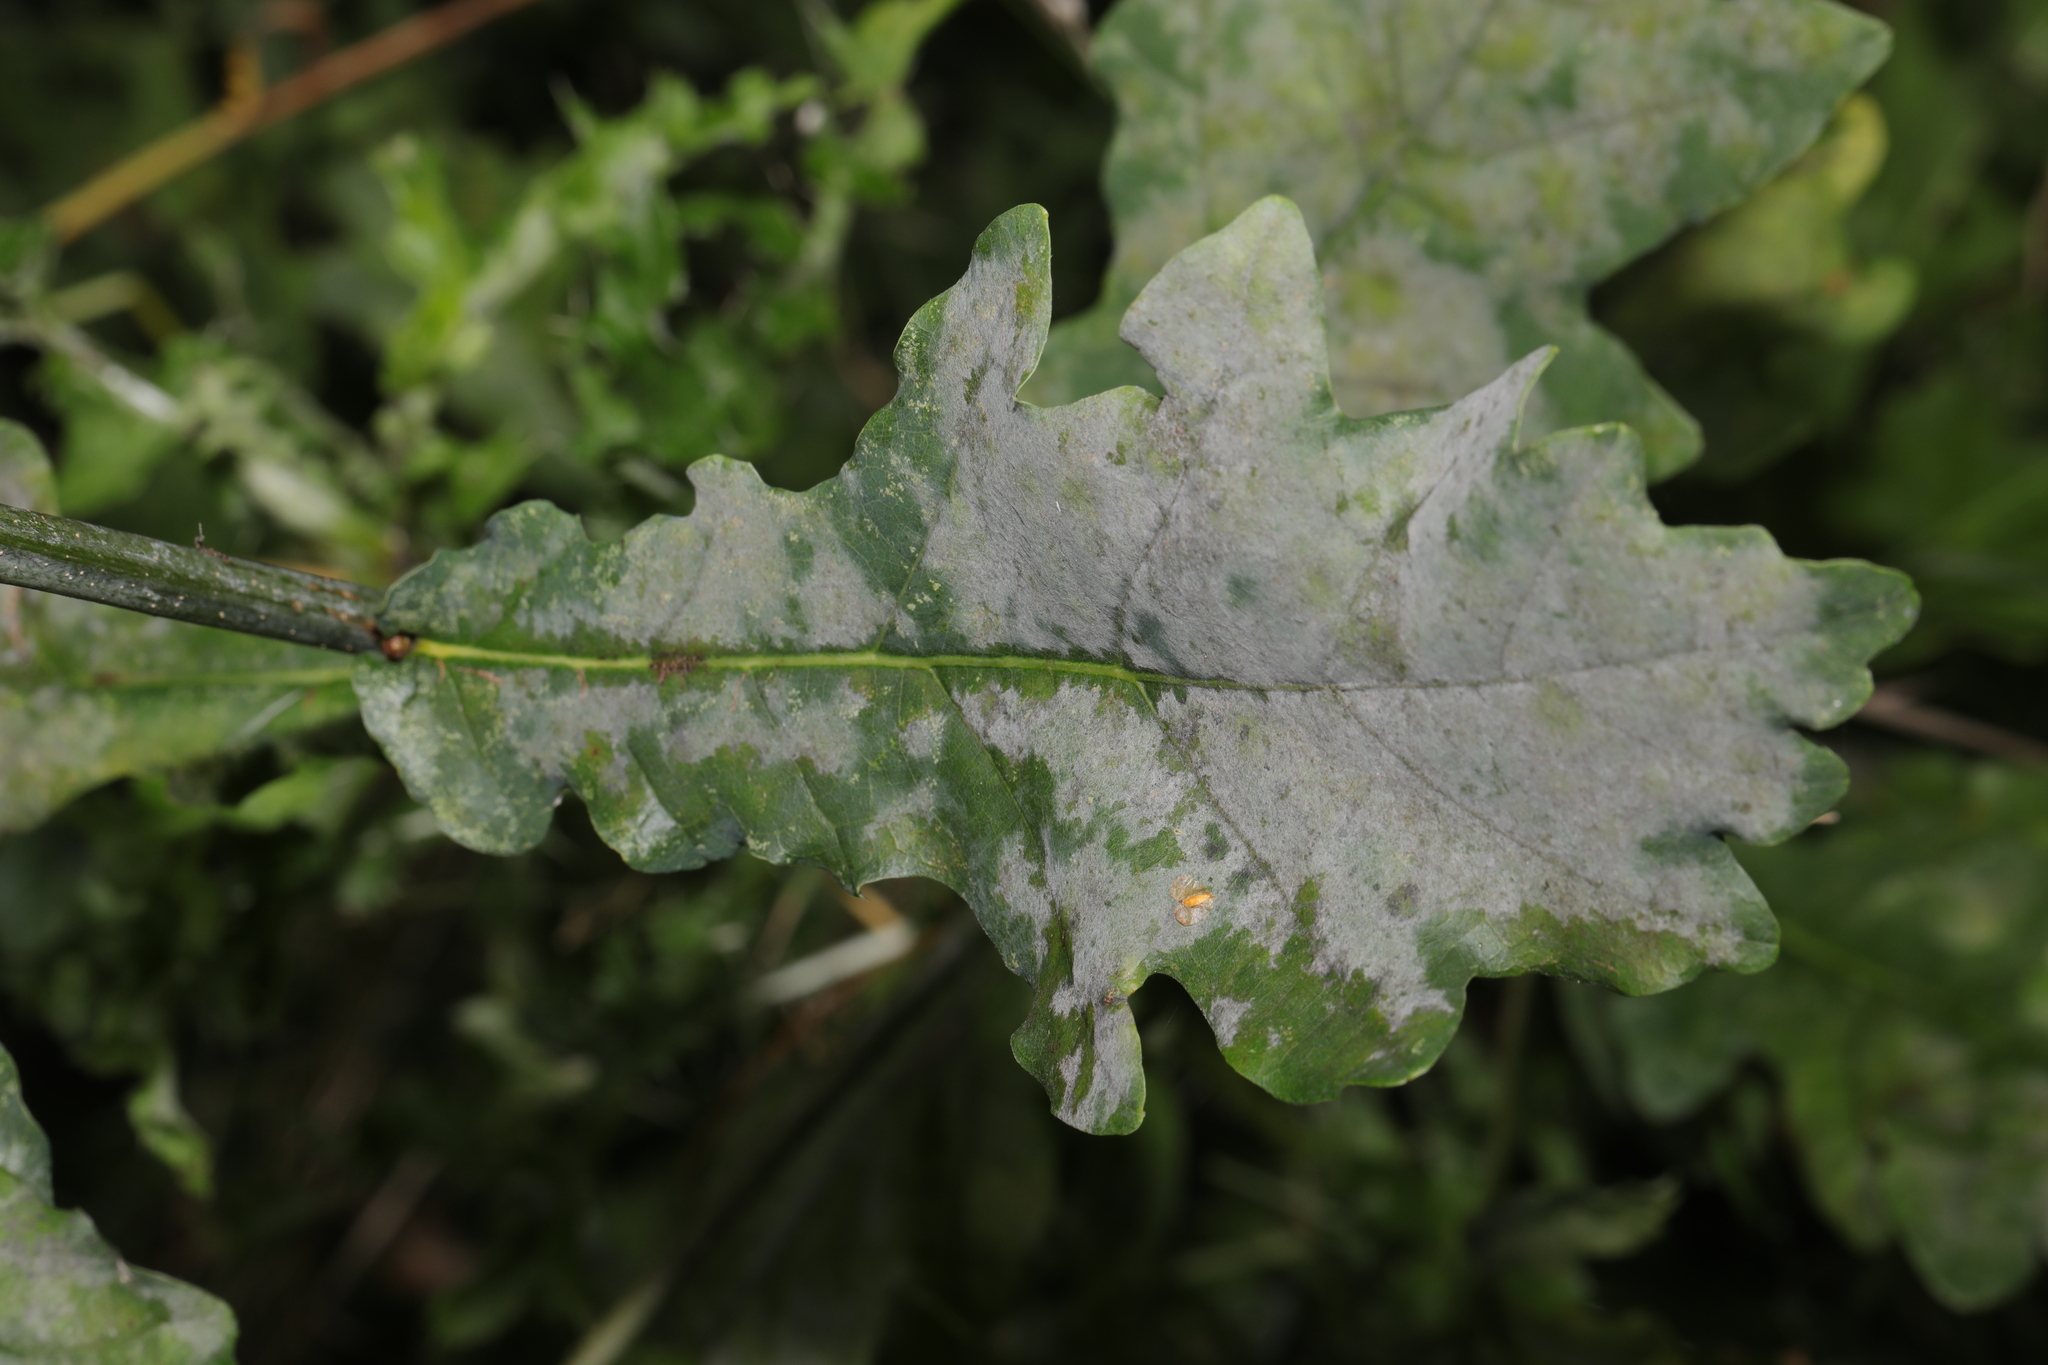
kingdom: Fungi
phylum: Ascomycota
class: Leotiomycetes
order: Helotiales
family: Erysiphaceae
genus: Erysiphe
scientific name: Erysiphe alphitoides
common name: Oak mildew
